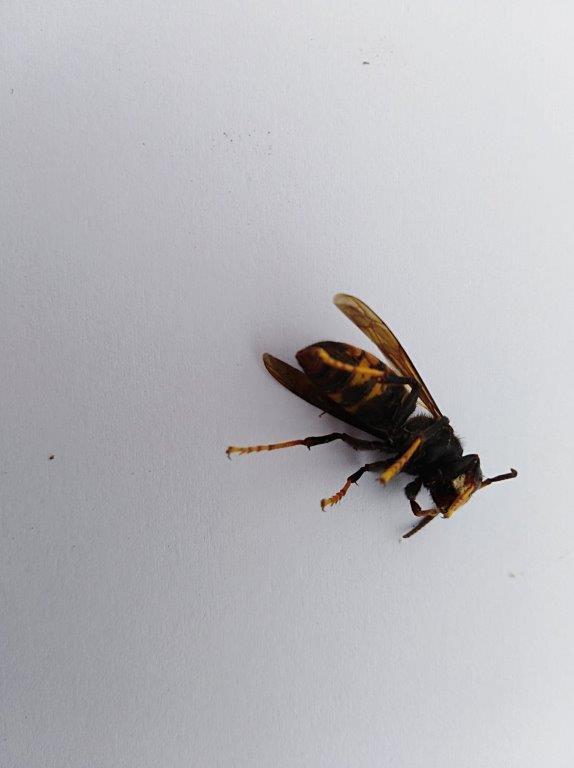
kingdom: Animalia
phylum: Arthropoda
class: Insecta
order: Hymenoptera
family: Vespidae
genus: Vespa
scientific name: Vespa velutina
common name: Asian hornet
